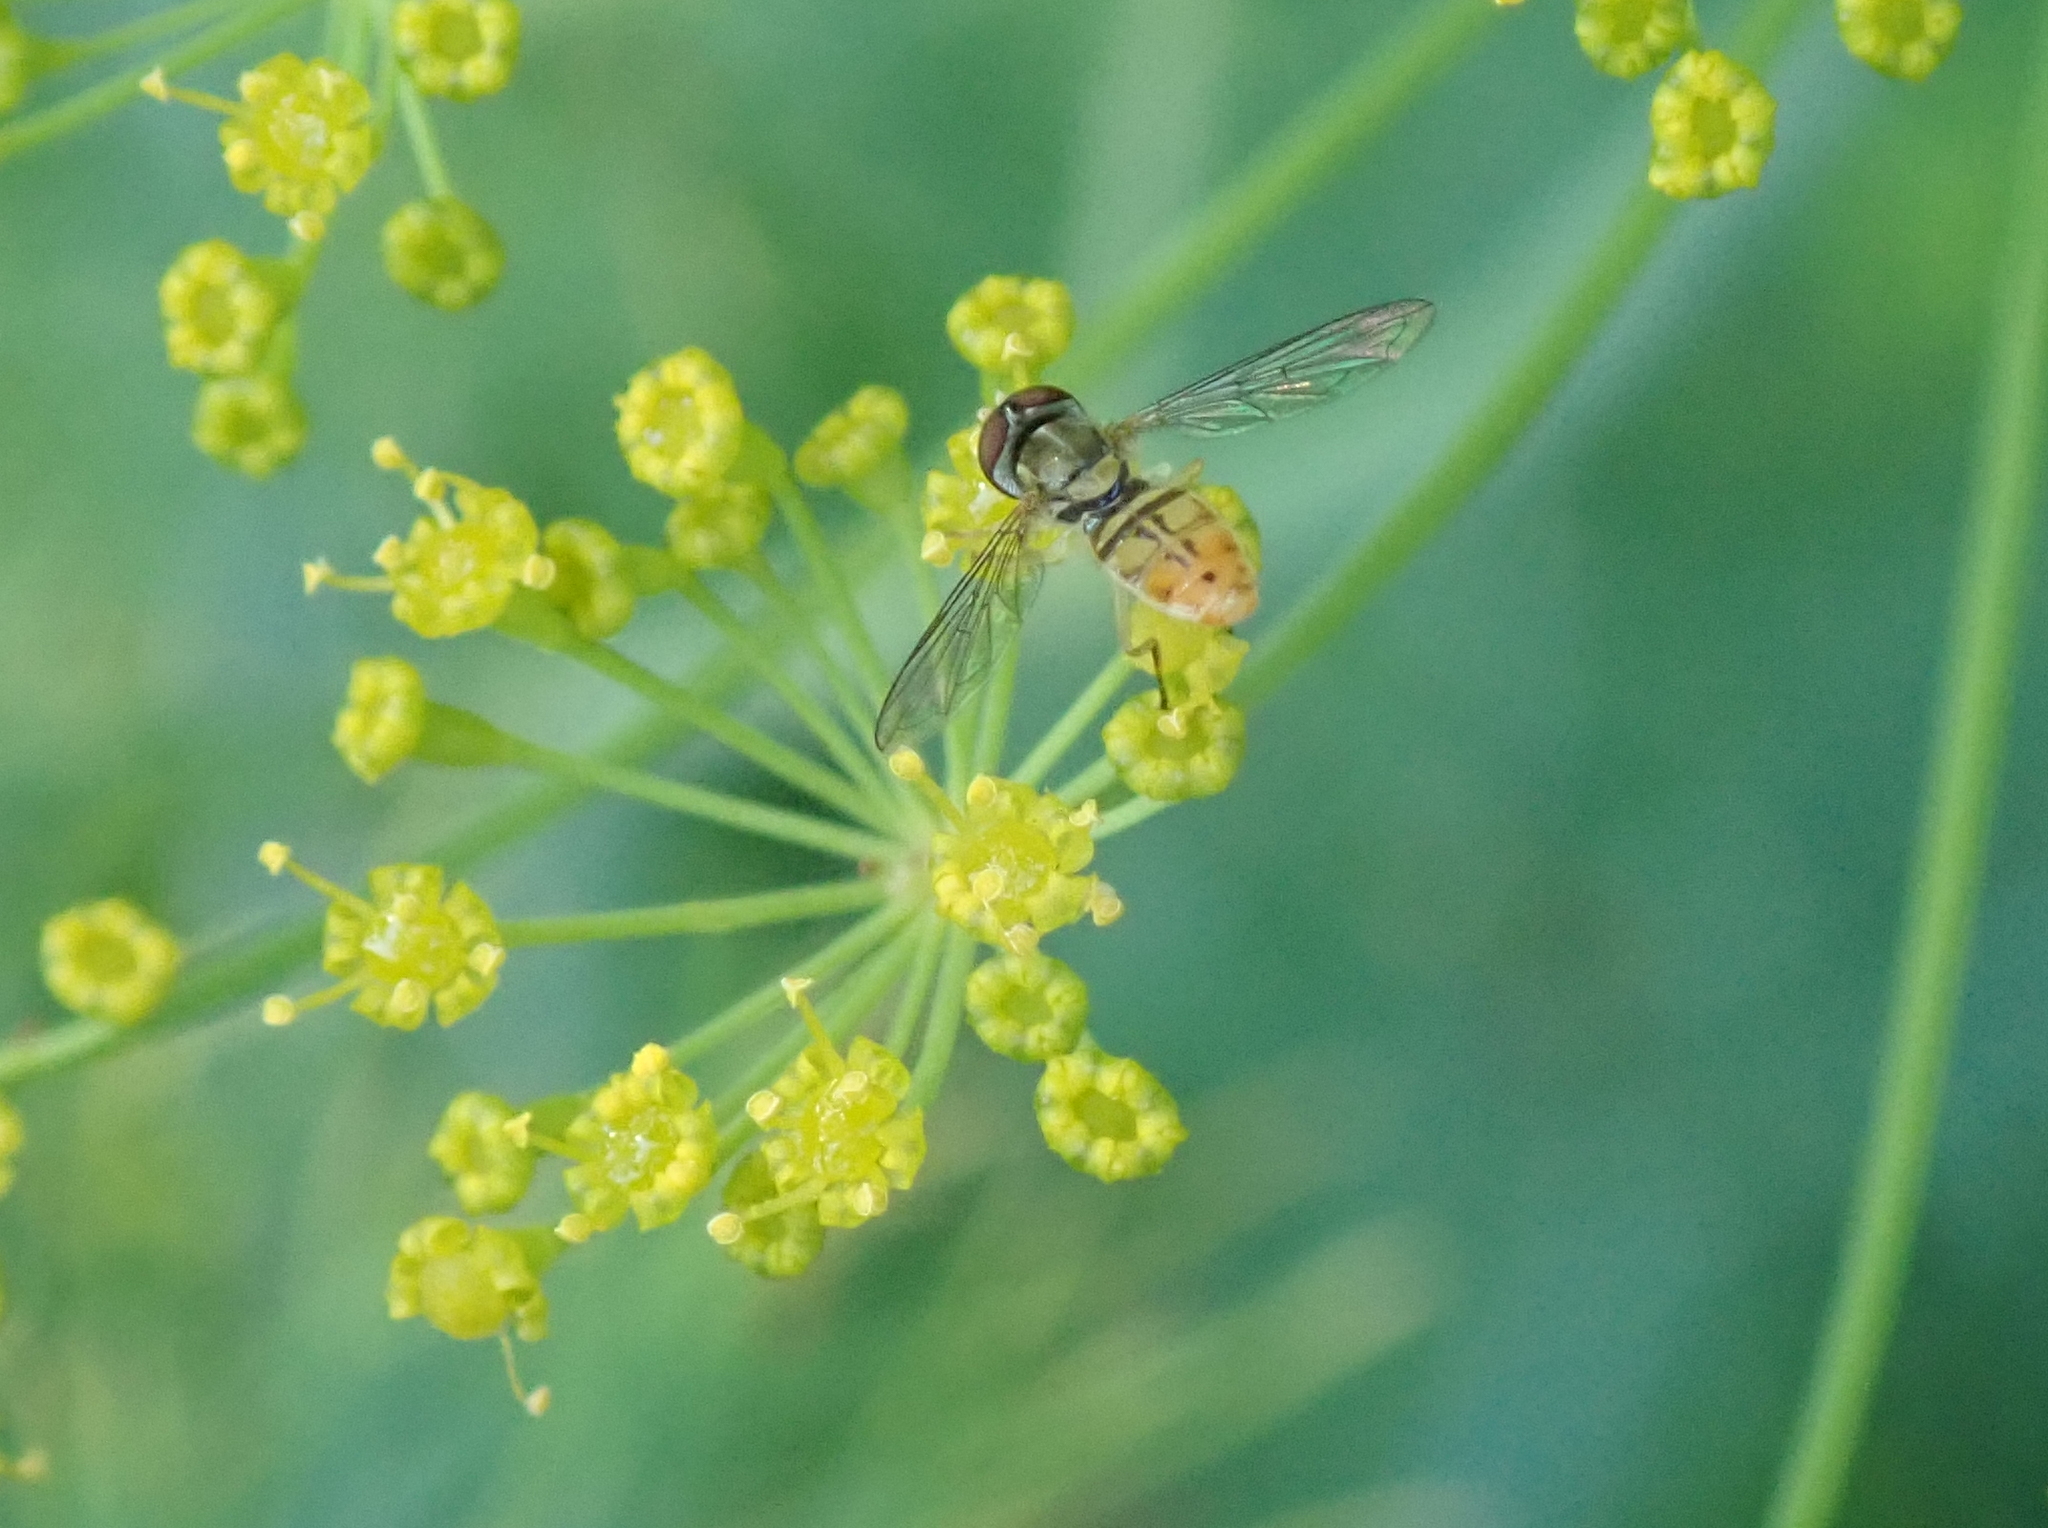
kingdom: Animalia
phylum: Arthropoda
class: Insecta
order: Diptera
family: Syrphidae
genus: Toxomerus
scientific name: Toxomerus marginatus
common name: Syrphid fly
